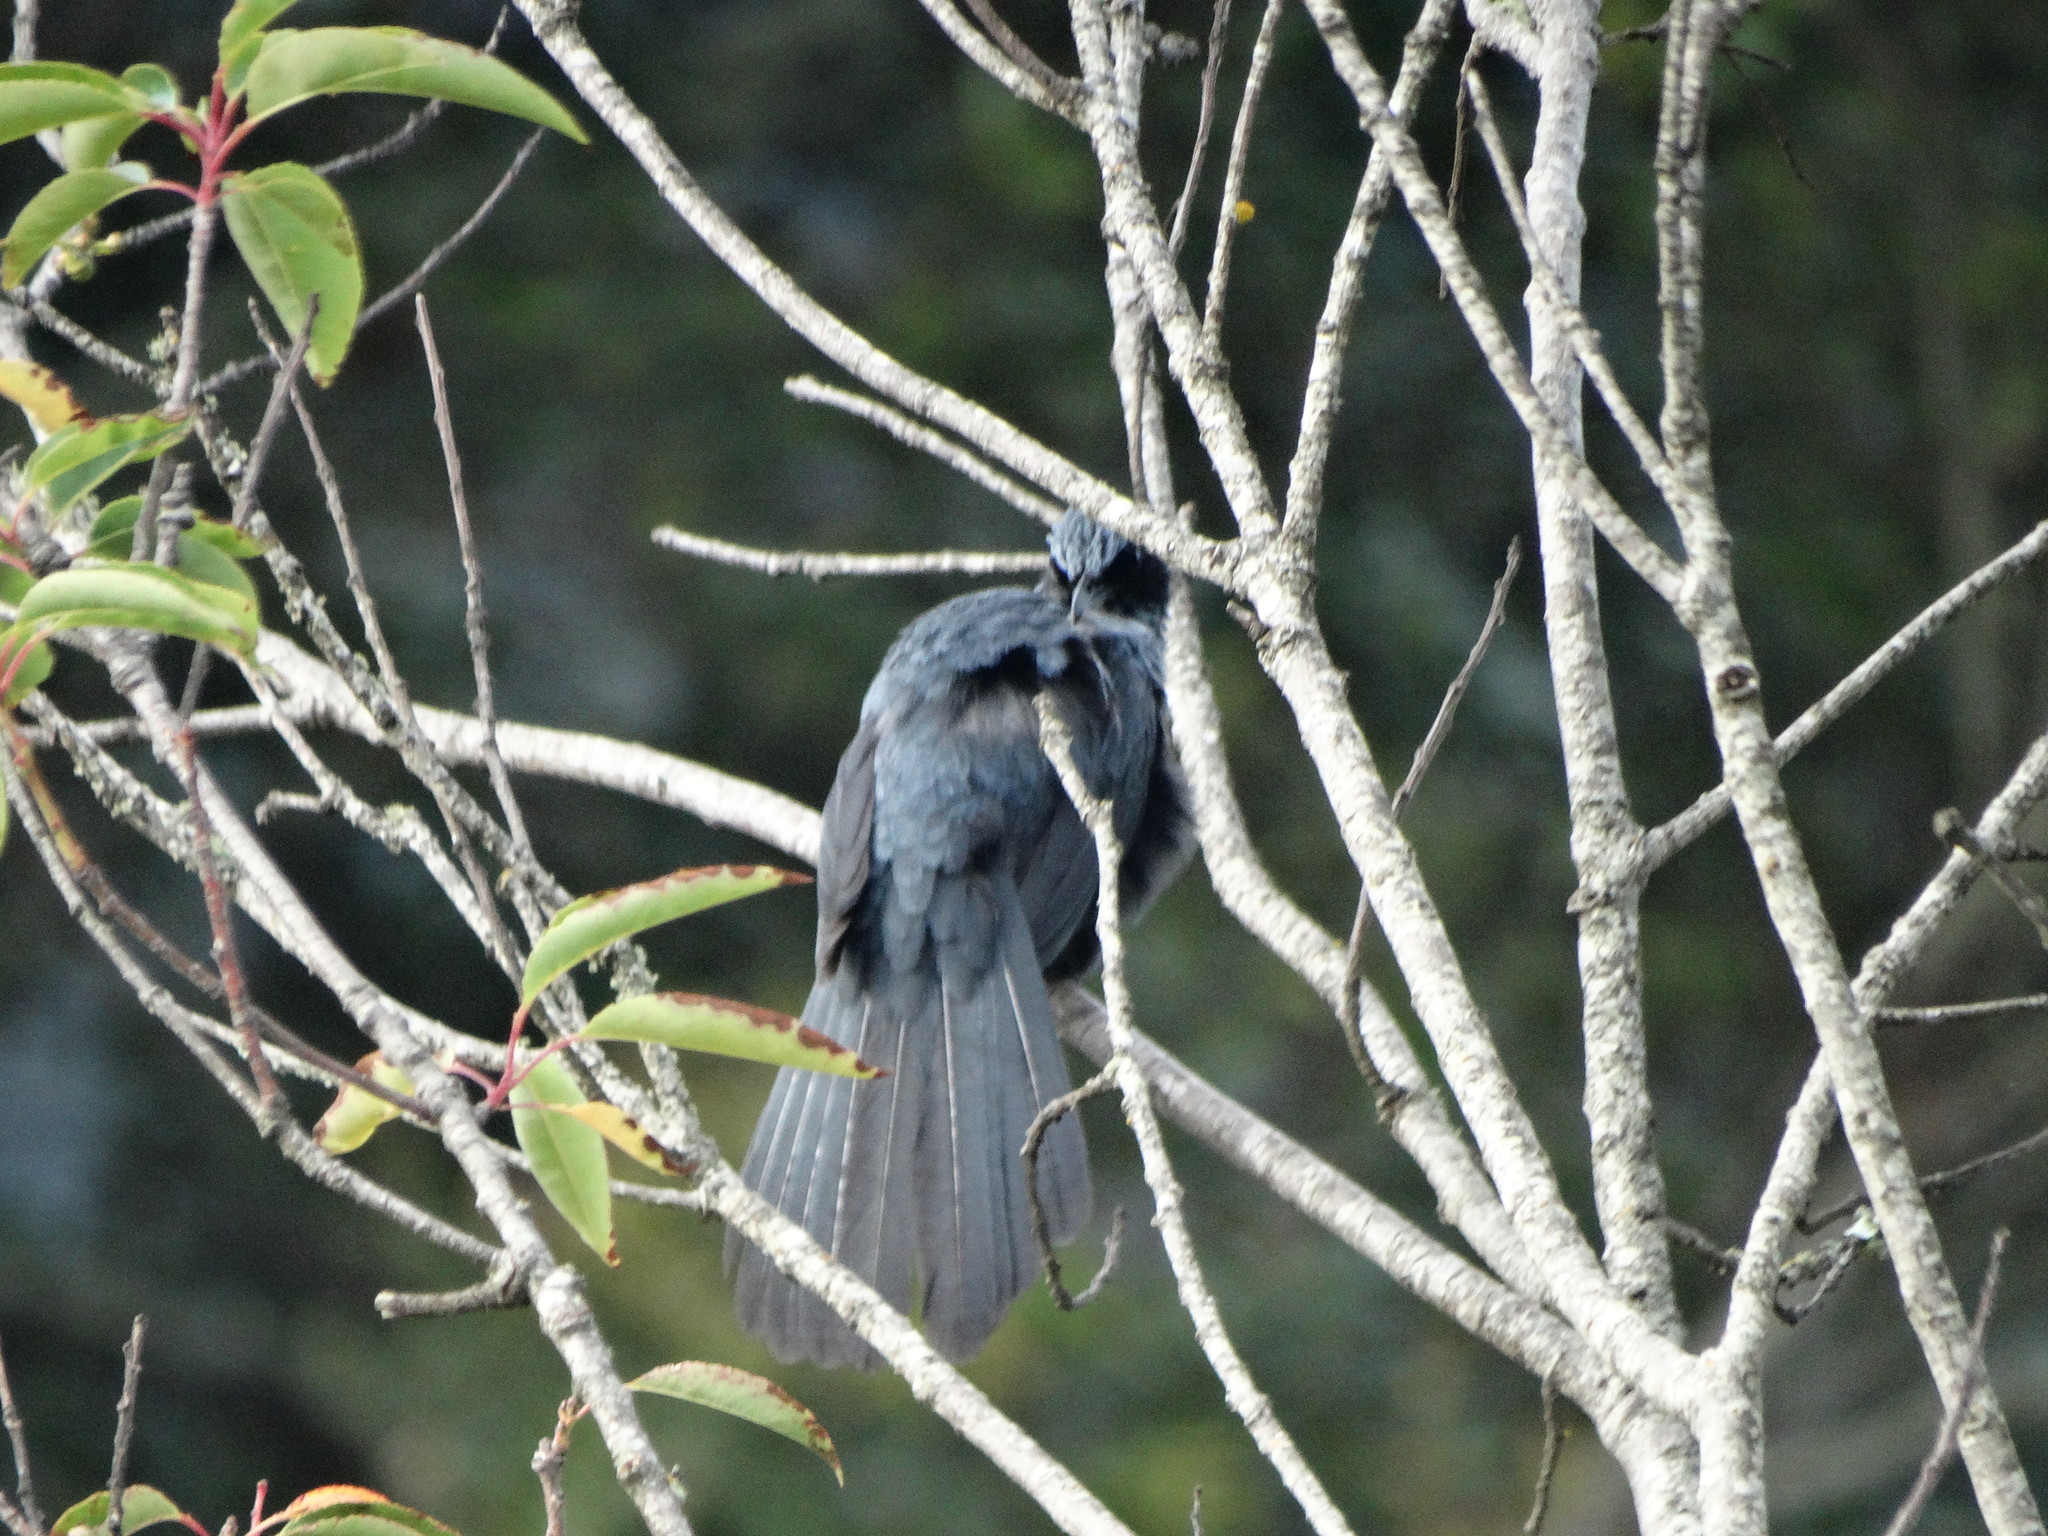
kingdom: Animalia
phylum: Chordata
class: Aves
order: Passeriformes
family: Mimidae
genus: Melanotis
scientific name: Melanotis caerulescens
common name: Blue mockingbird
